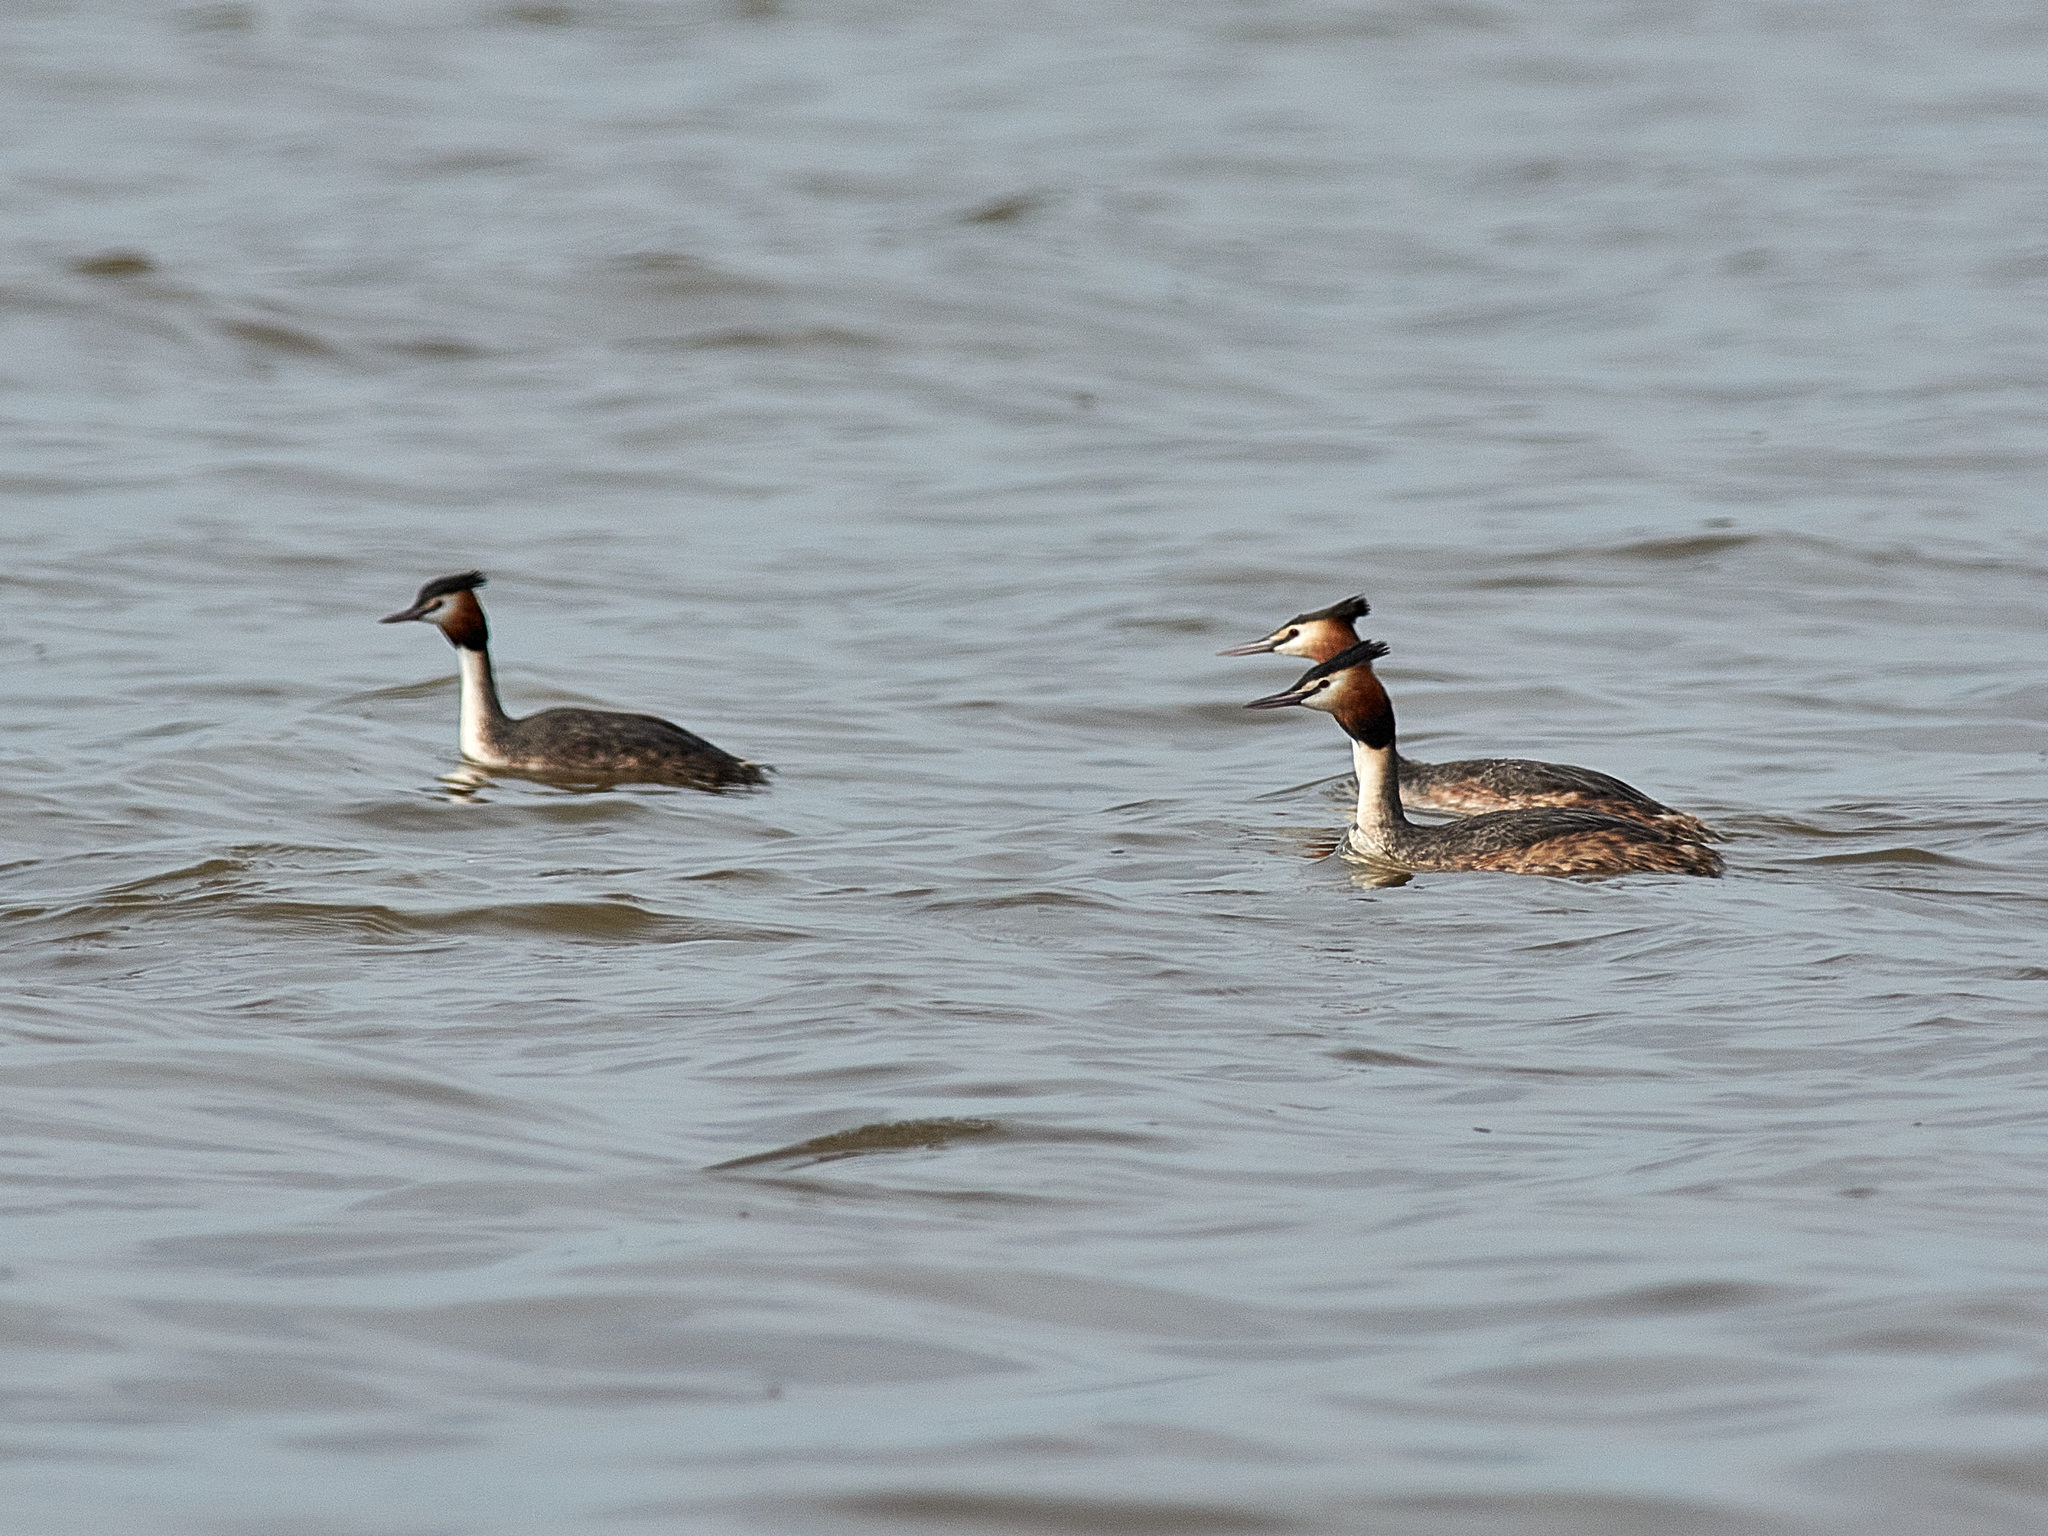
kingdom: Animalia
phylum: Chordata
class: Aves
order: Podicipediformes
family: Podicipedidae
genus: Podiceps
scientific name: Podiceps cristatus
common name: Great crested grebe
